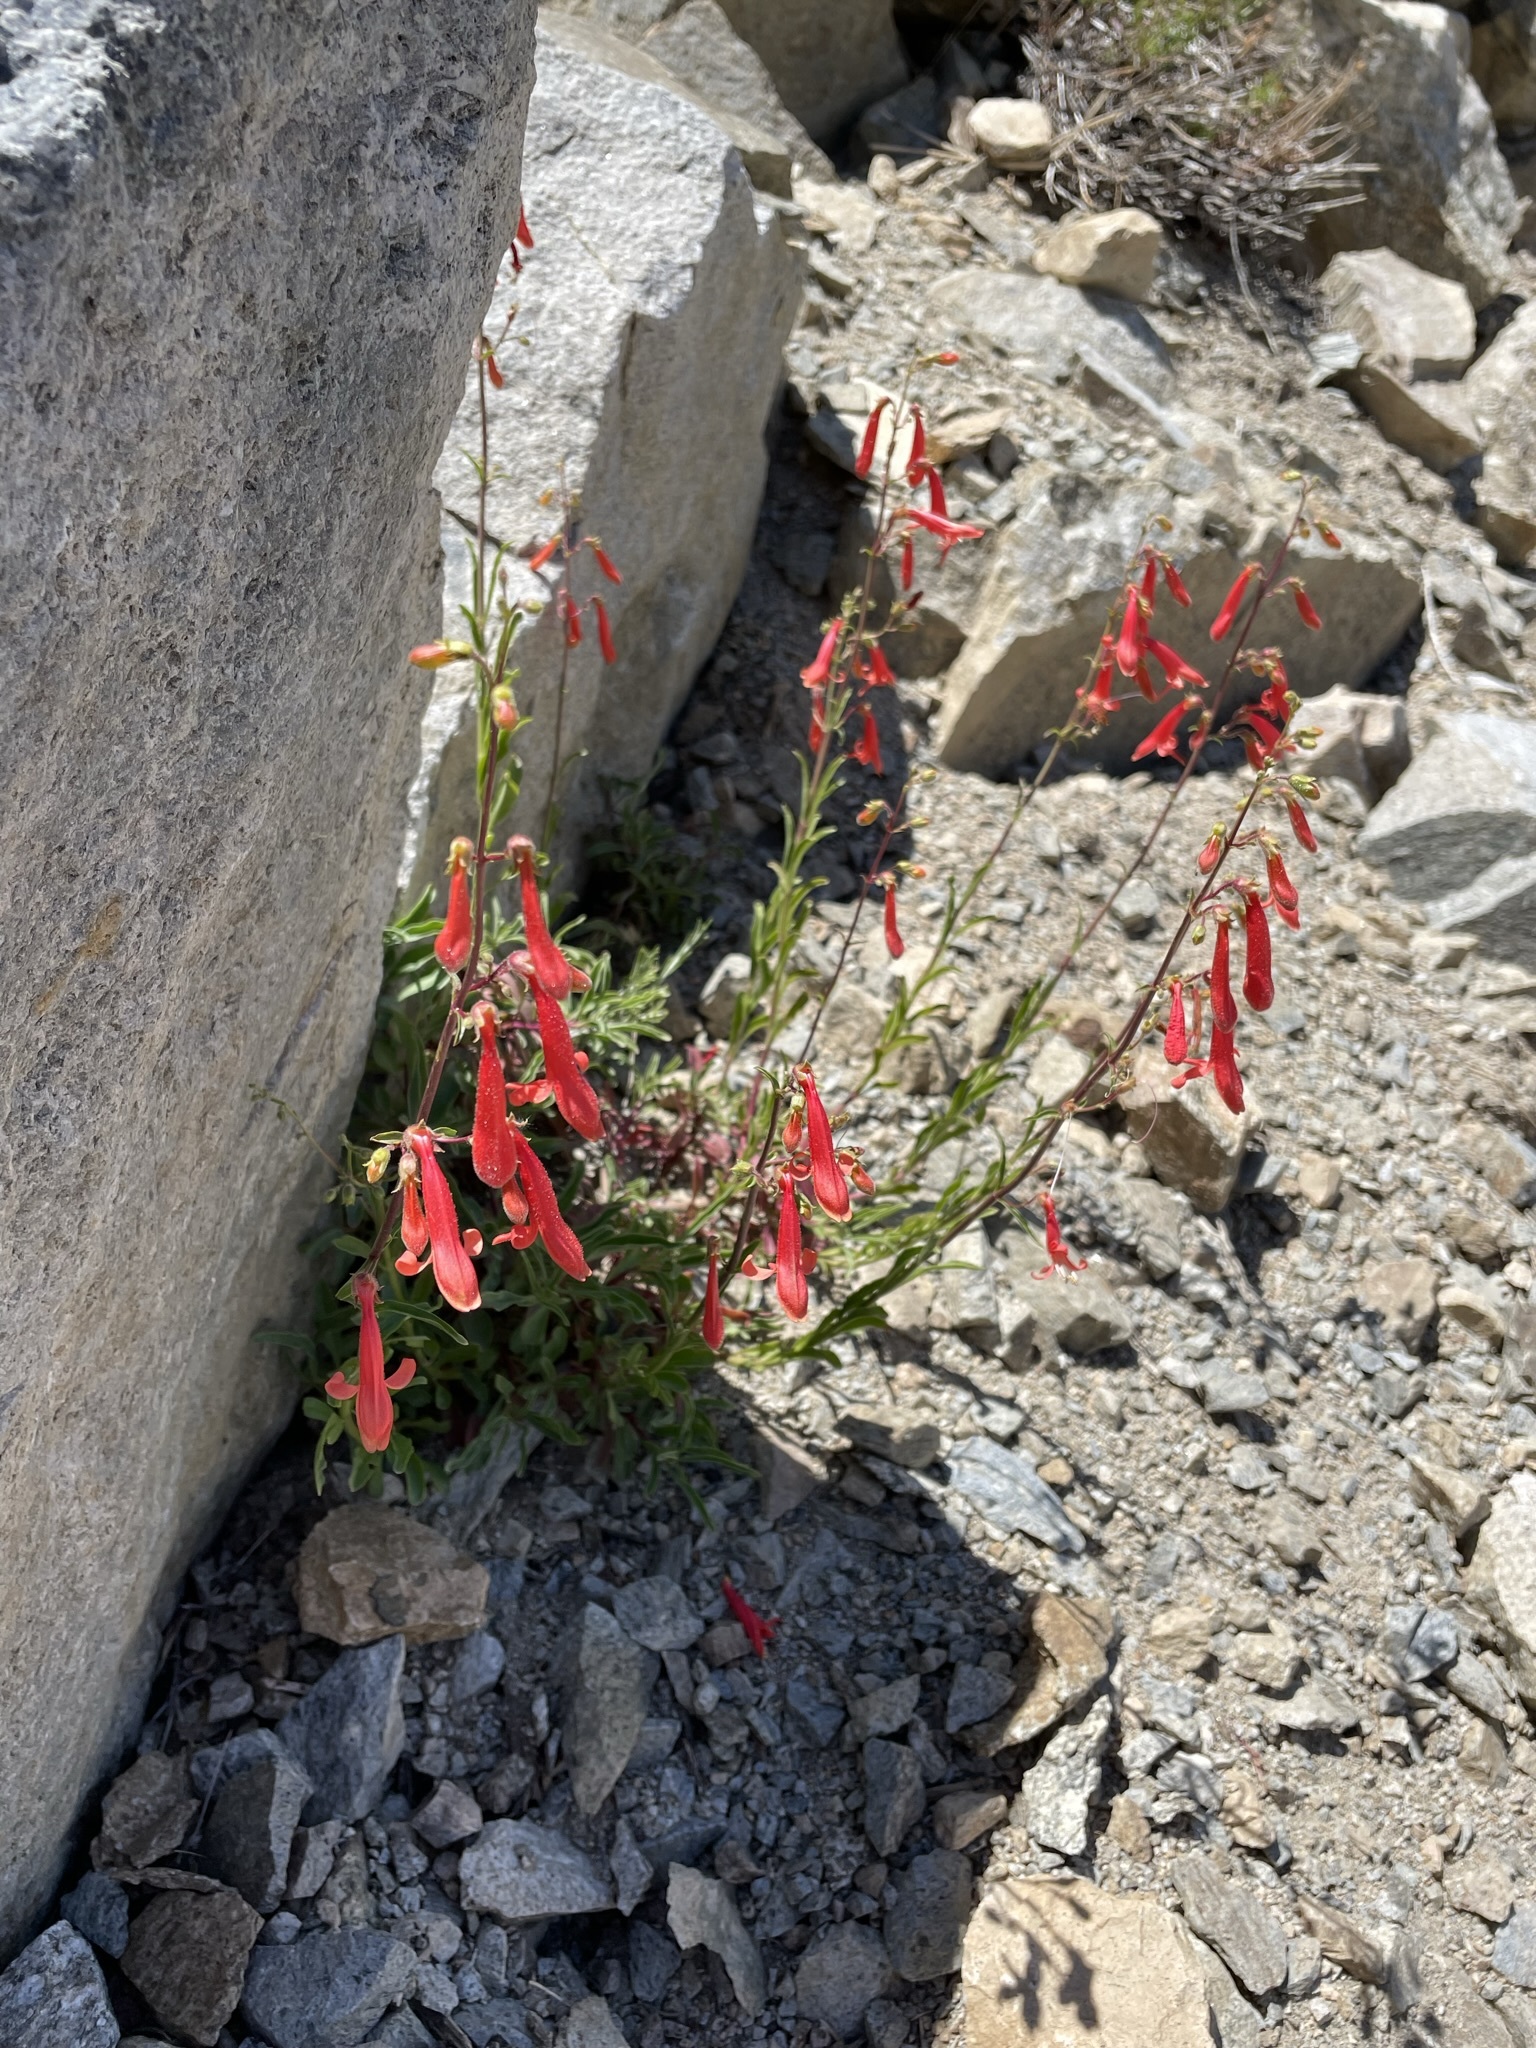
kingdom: Plantae
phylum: Tracheophyta
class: Magnoliopsida
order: Lamiales
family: Plantaginaceae
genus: Penstemon
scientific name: Penstemon rostriflorus
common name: Bridges's penstemon
